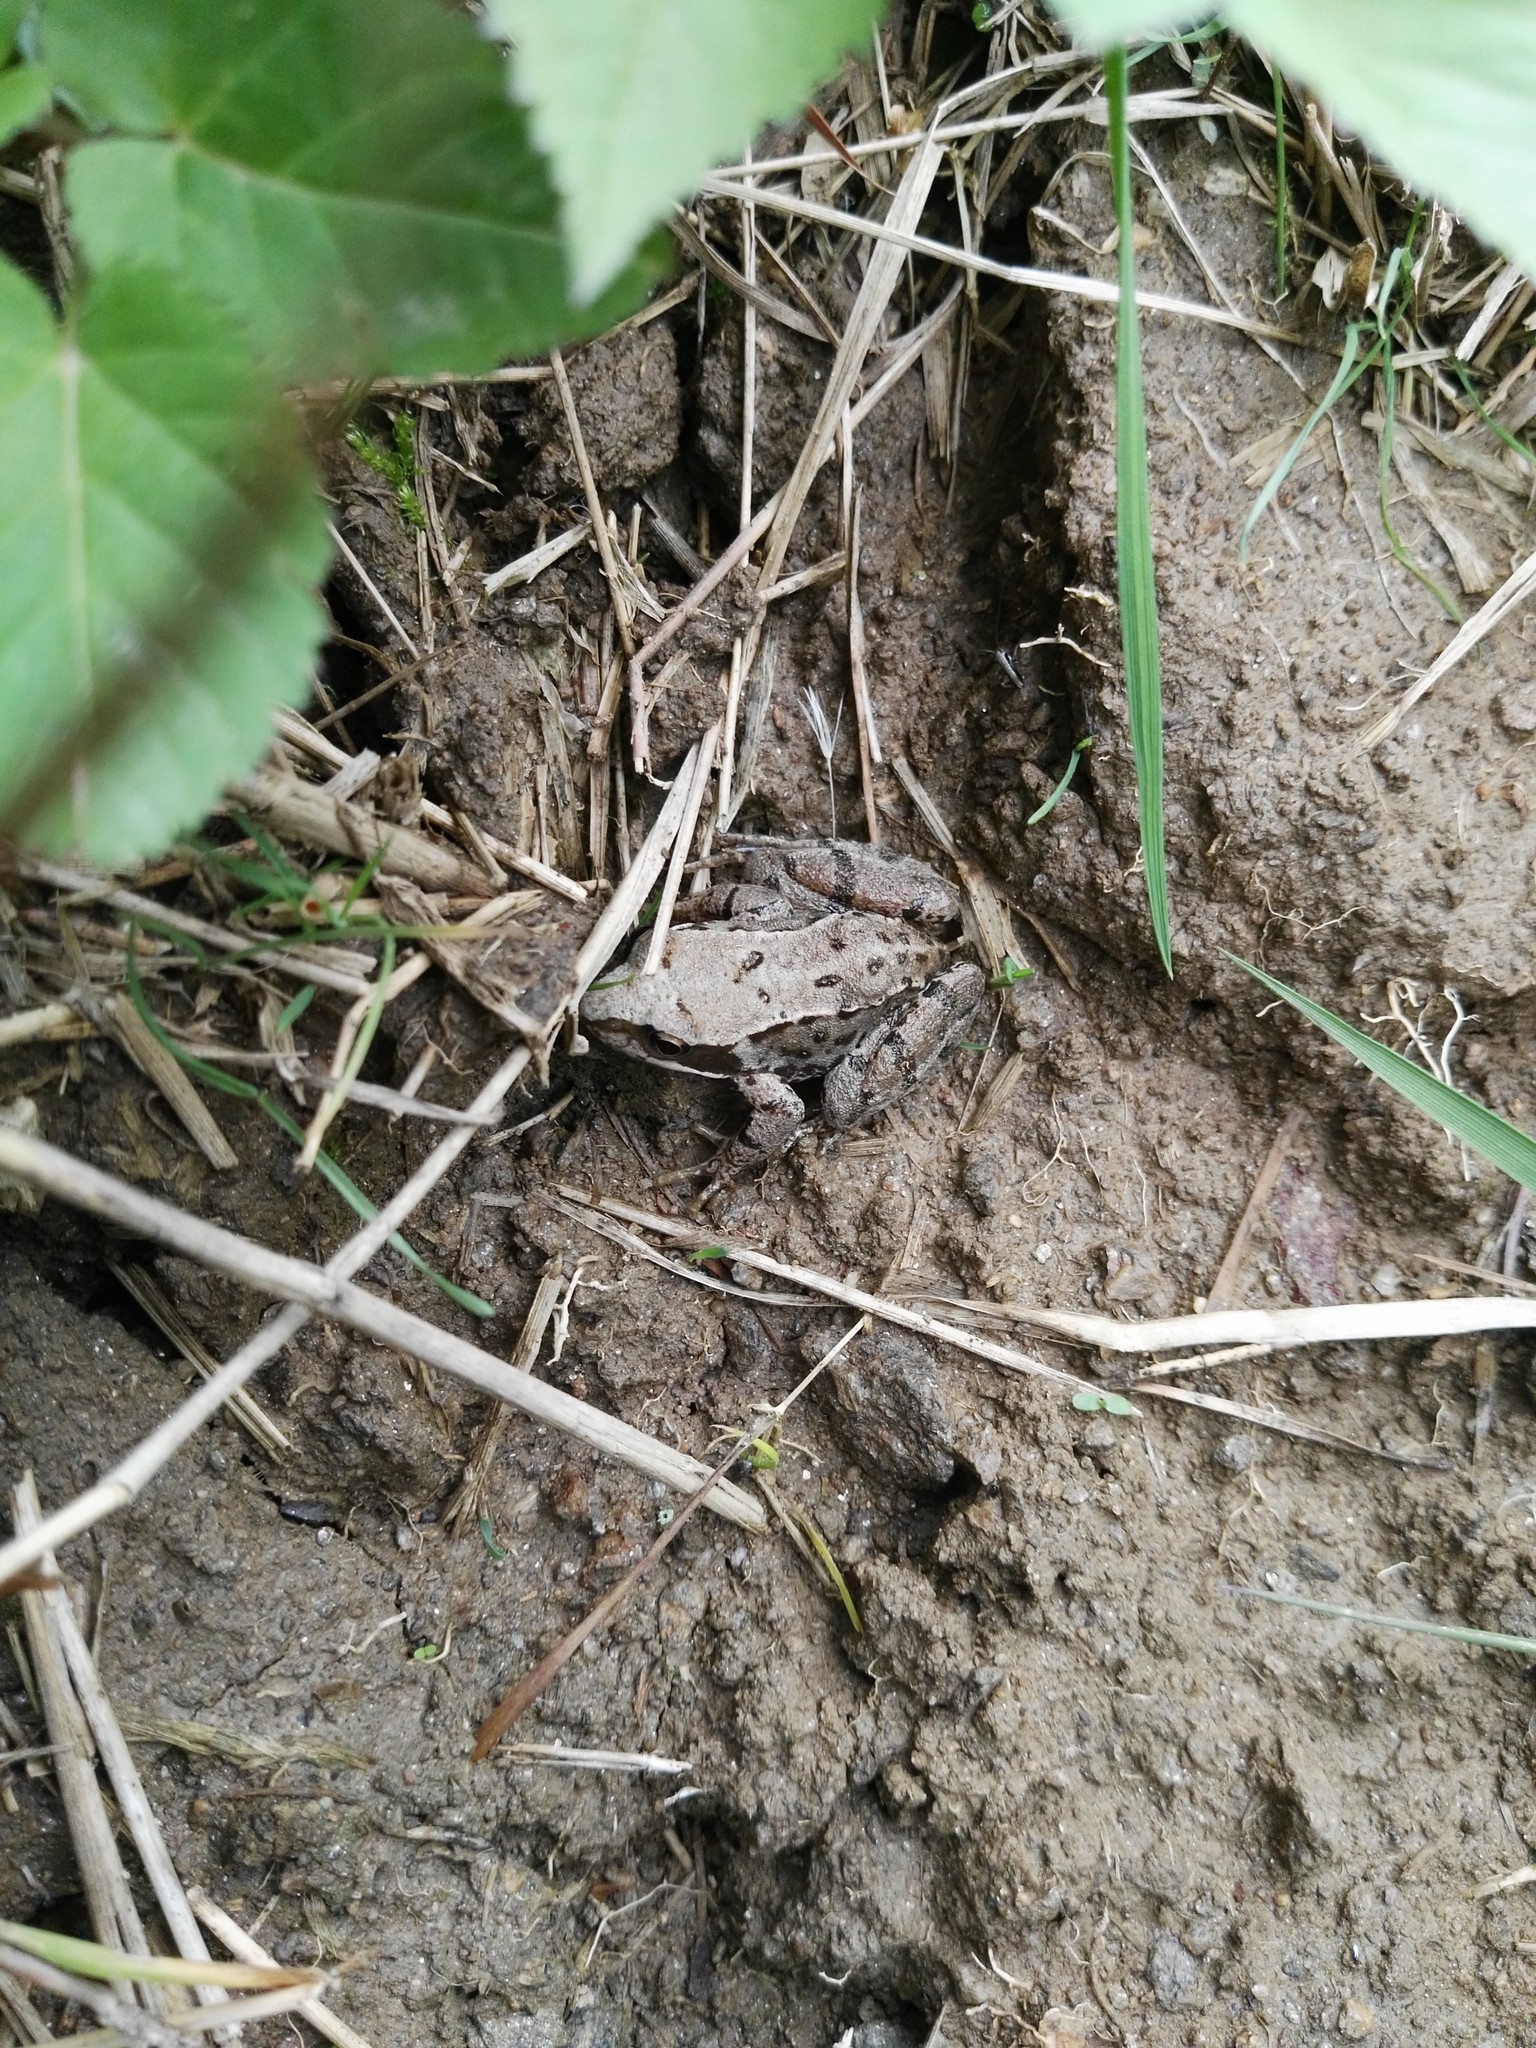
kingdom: Animalia
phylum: Chordata
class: Amphibia
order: Anura
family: Ranidae
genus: Rana
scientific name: Rana temporaria
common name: Common frog
